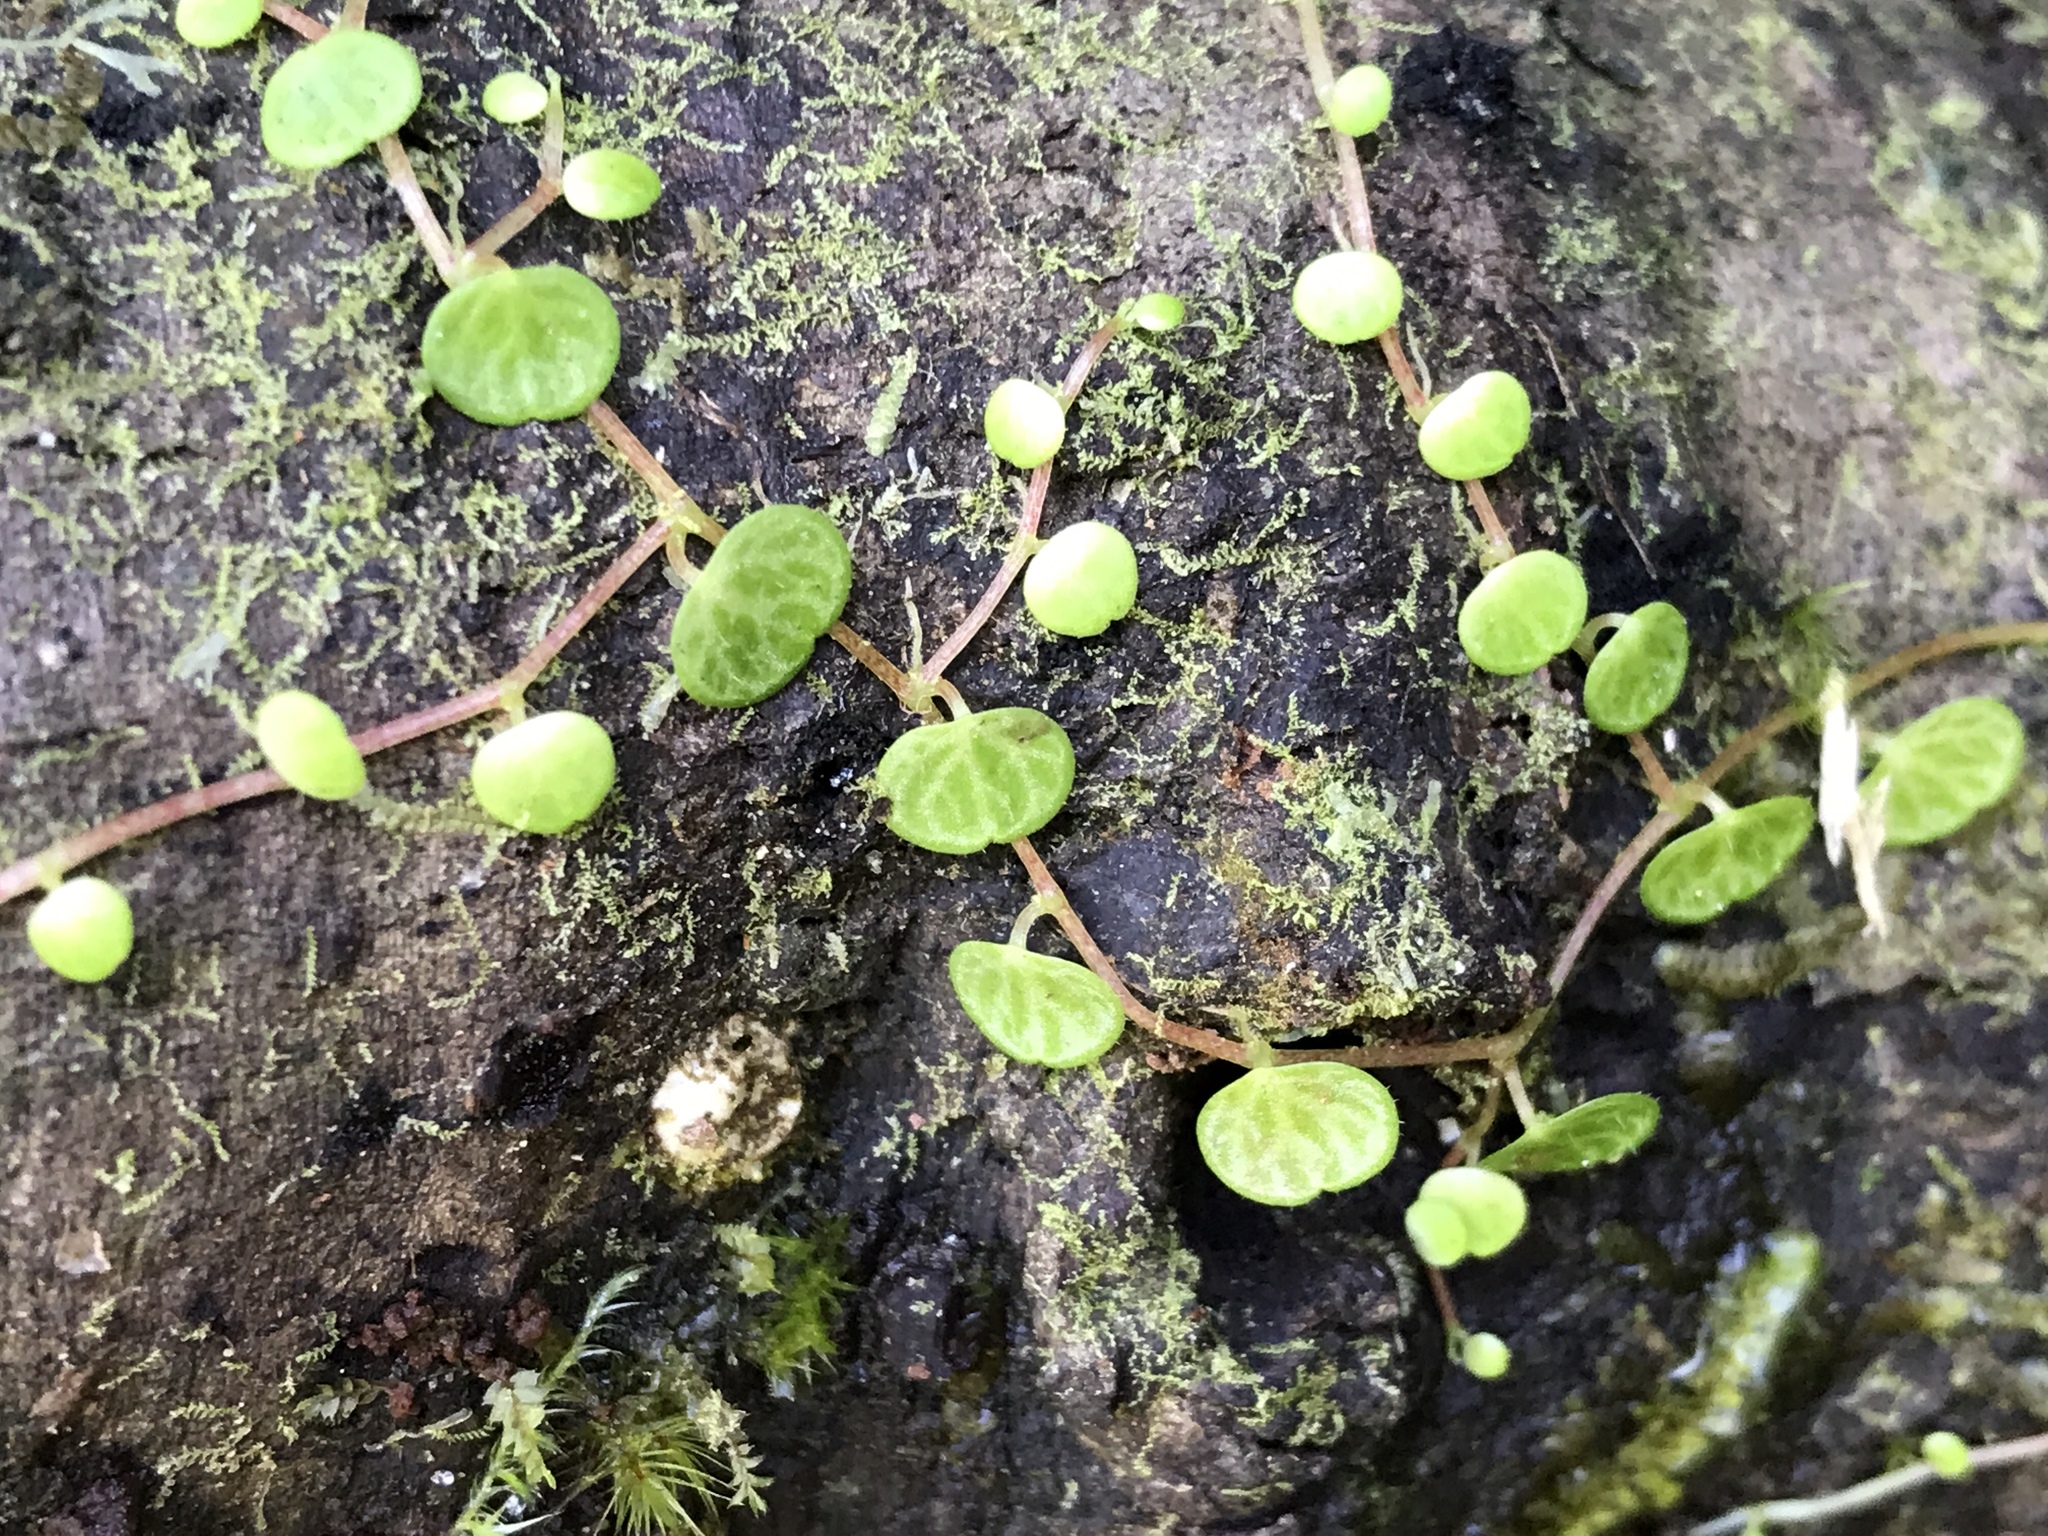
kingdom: Plantae
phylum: Tracheophyta
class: Magnoliopsida
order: Piperales
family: Piperaceae
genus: Peperomia
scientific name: Peperomia emarginella
